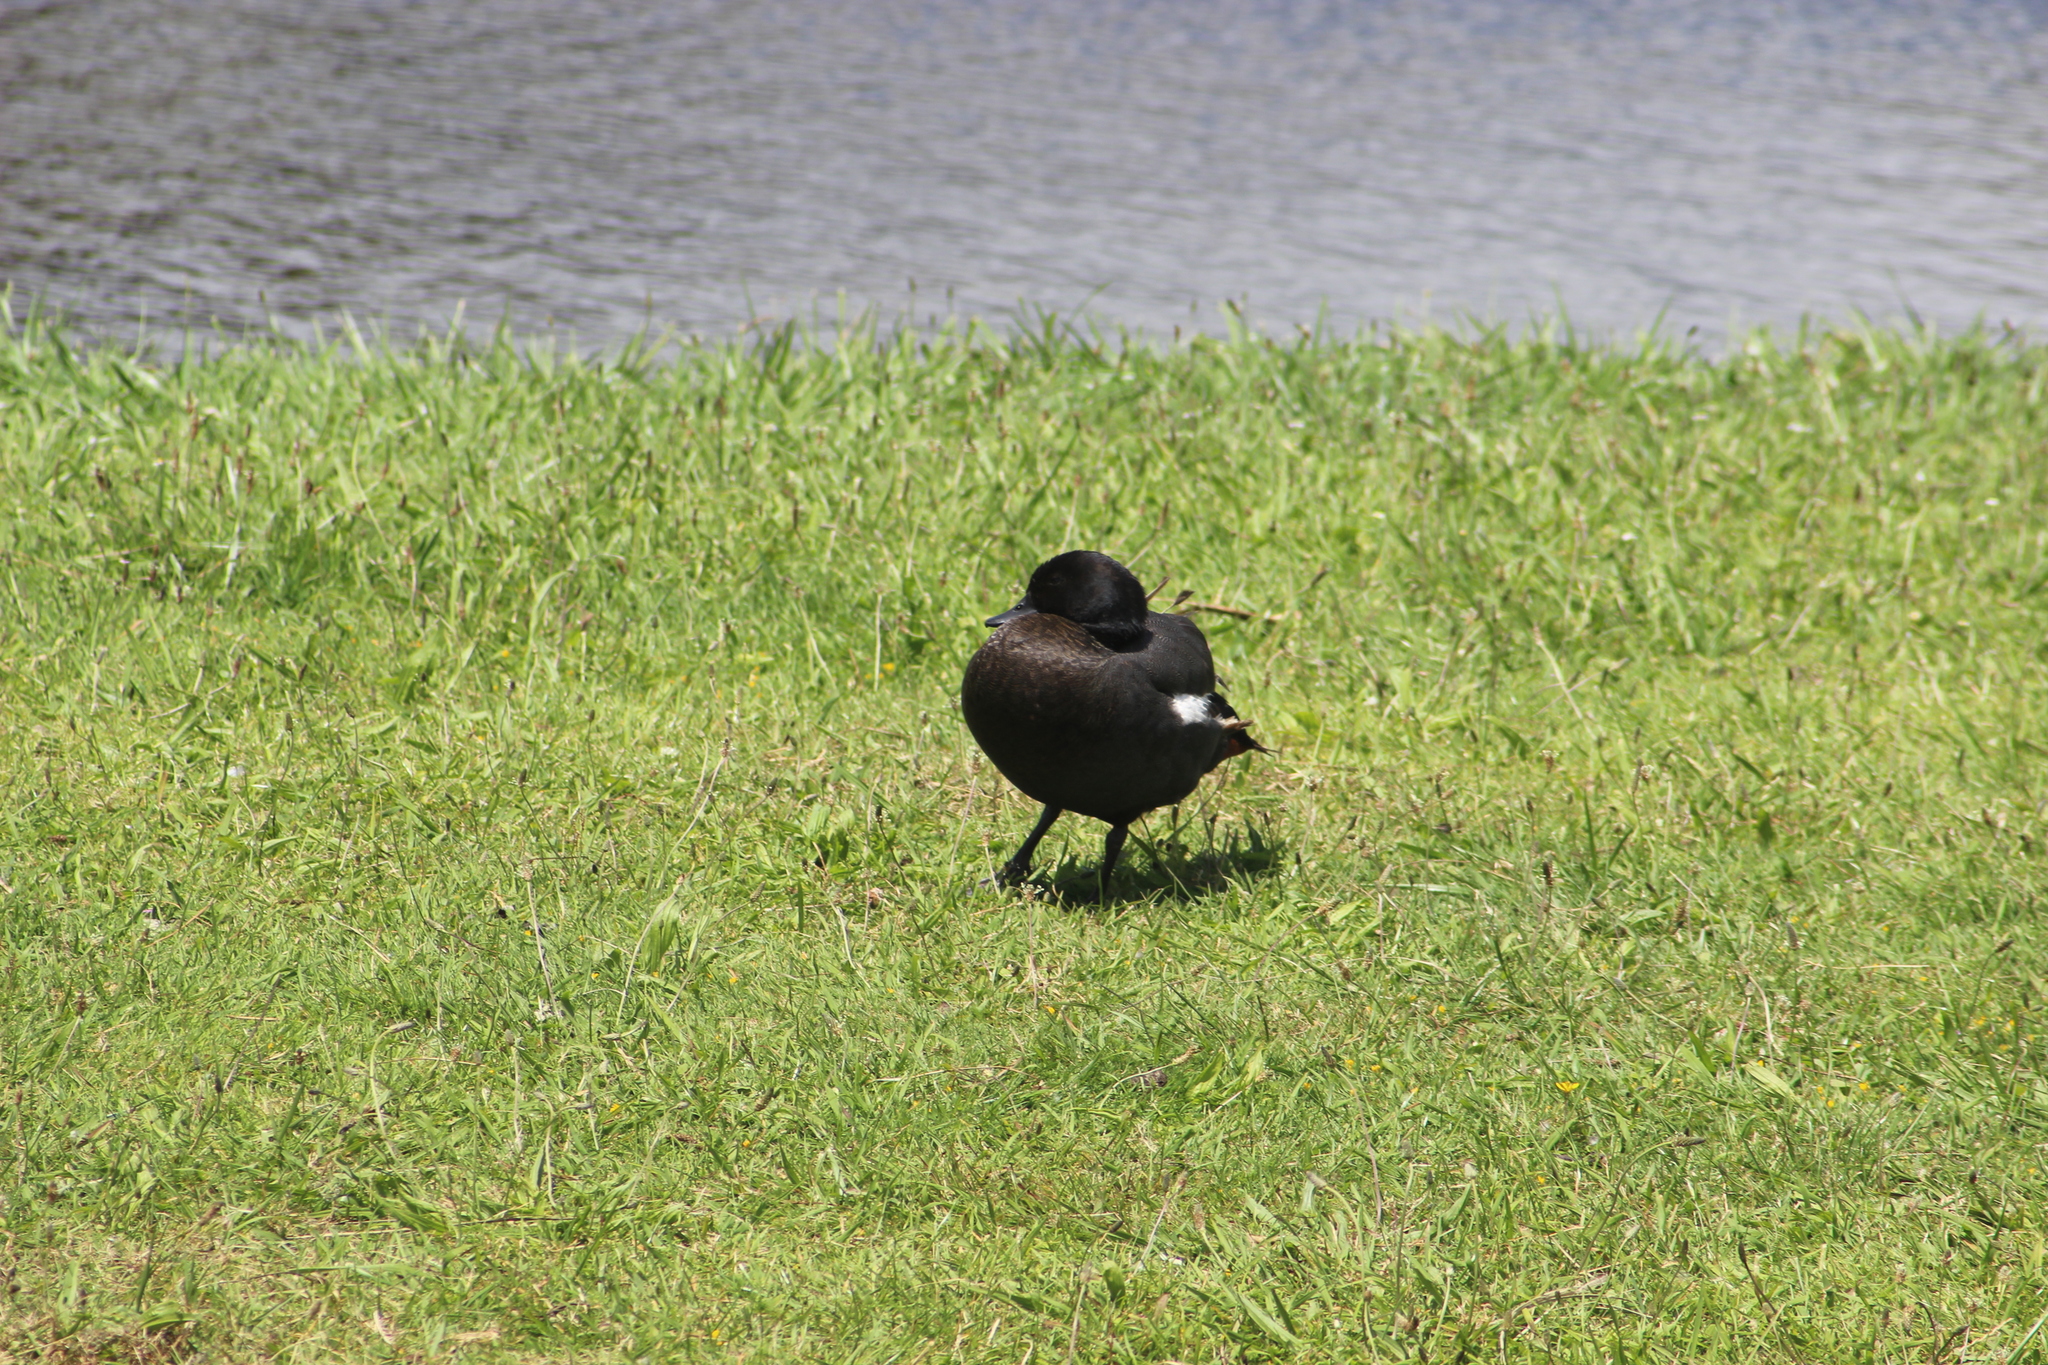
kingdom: Animalia
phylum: Chordata
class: Aves
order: Anseriformes
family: Anatidae
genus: Tadorna
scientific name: Tadorna variegata
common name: Paradise shelduck
